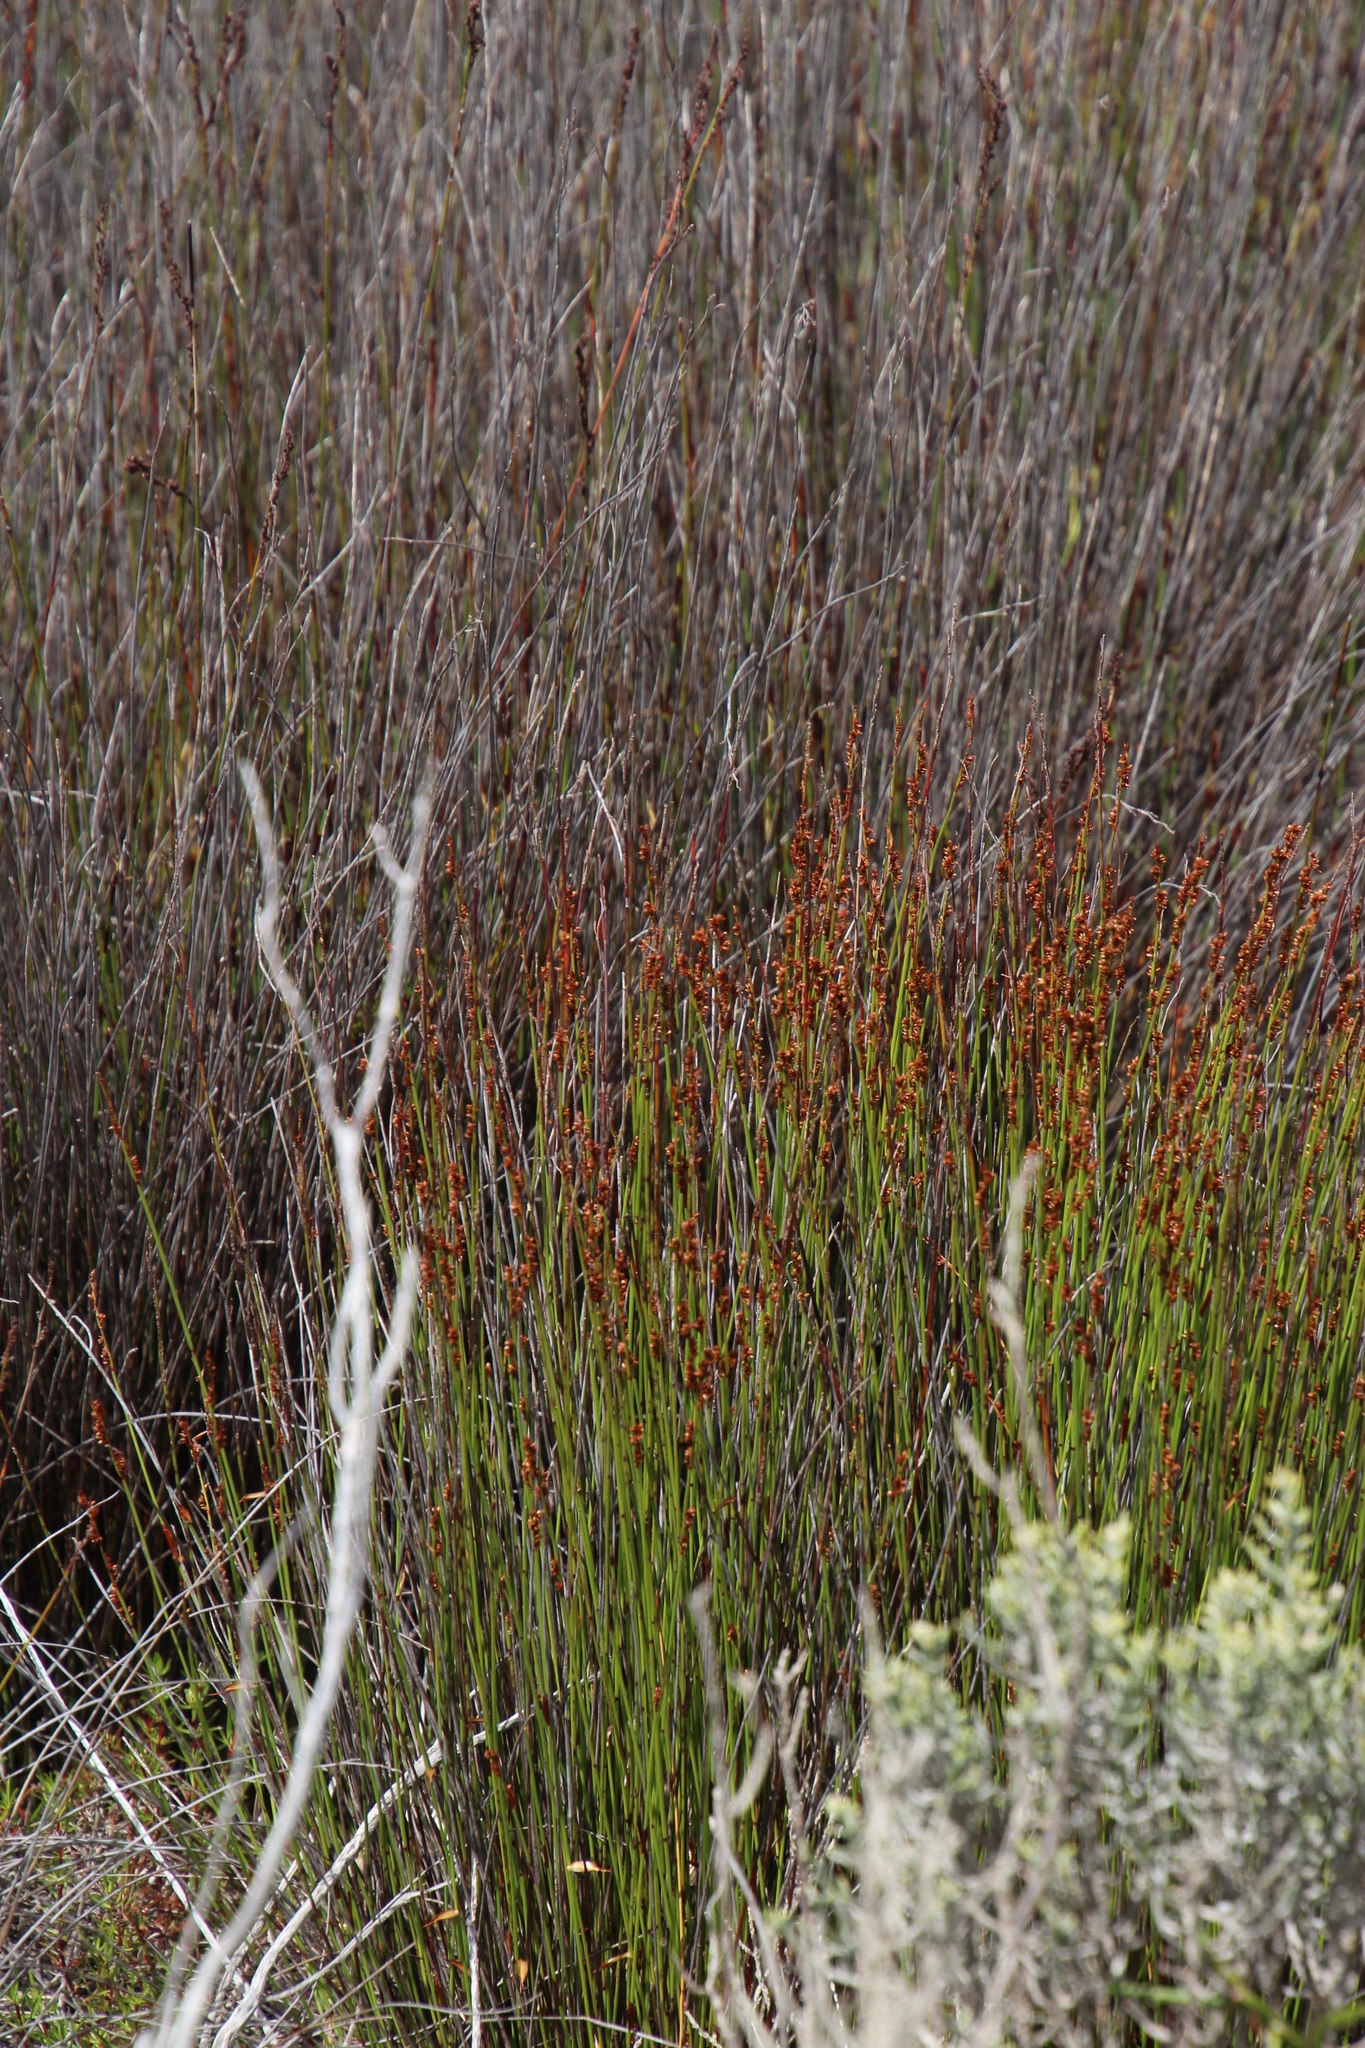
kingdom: Plantae
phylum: Tracheophyta
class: Liliopsida
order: Poales
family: Restionaceae
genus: Elegia
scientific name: Elegia nuda
